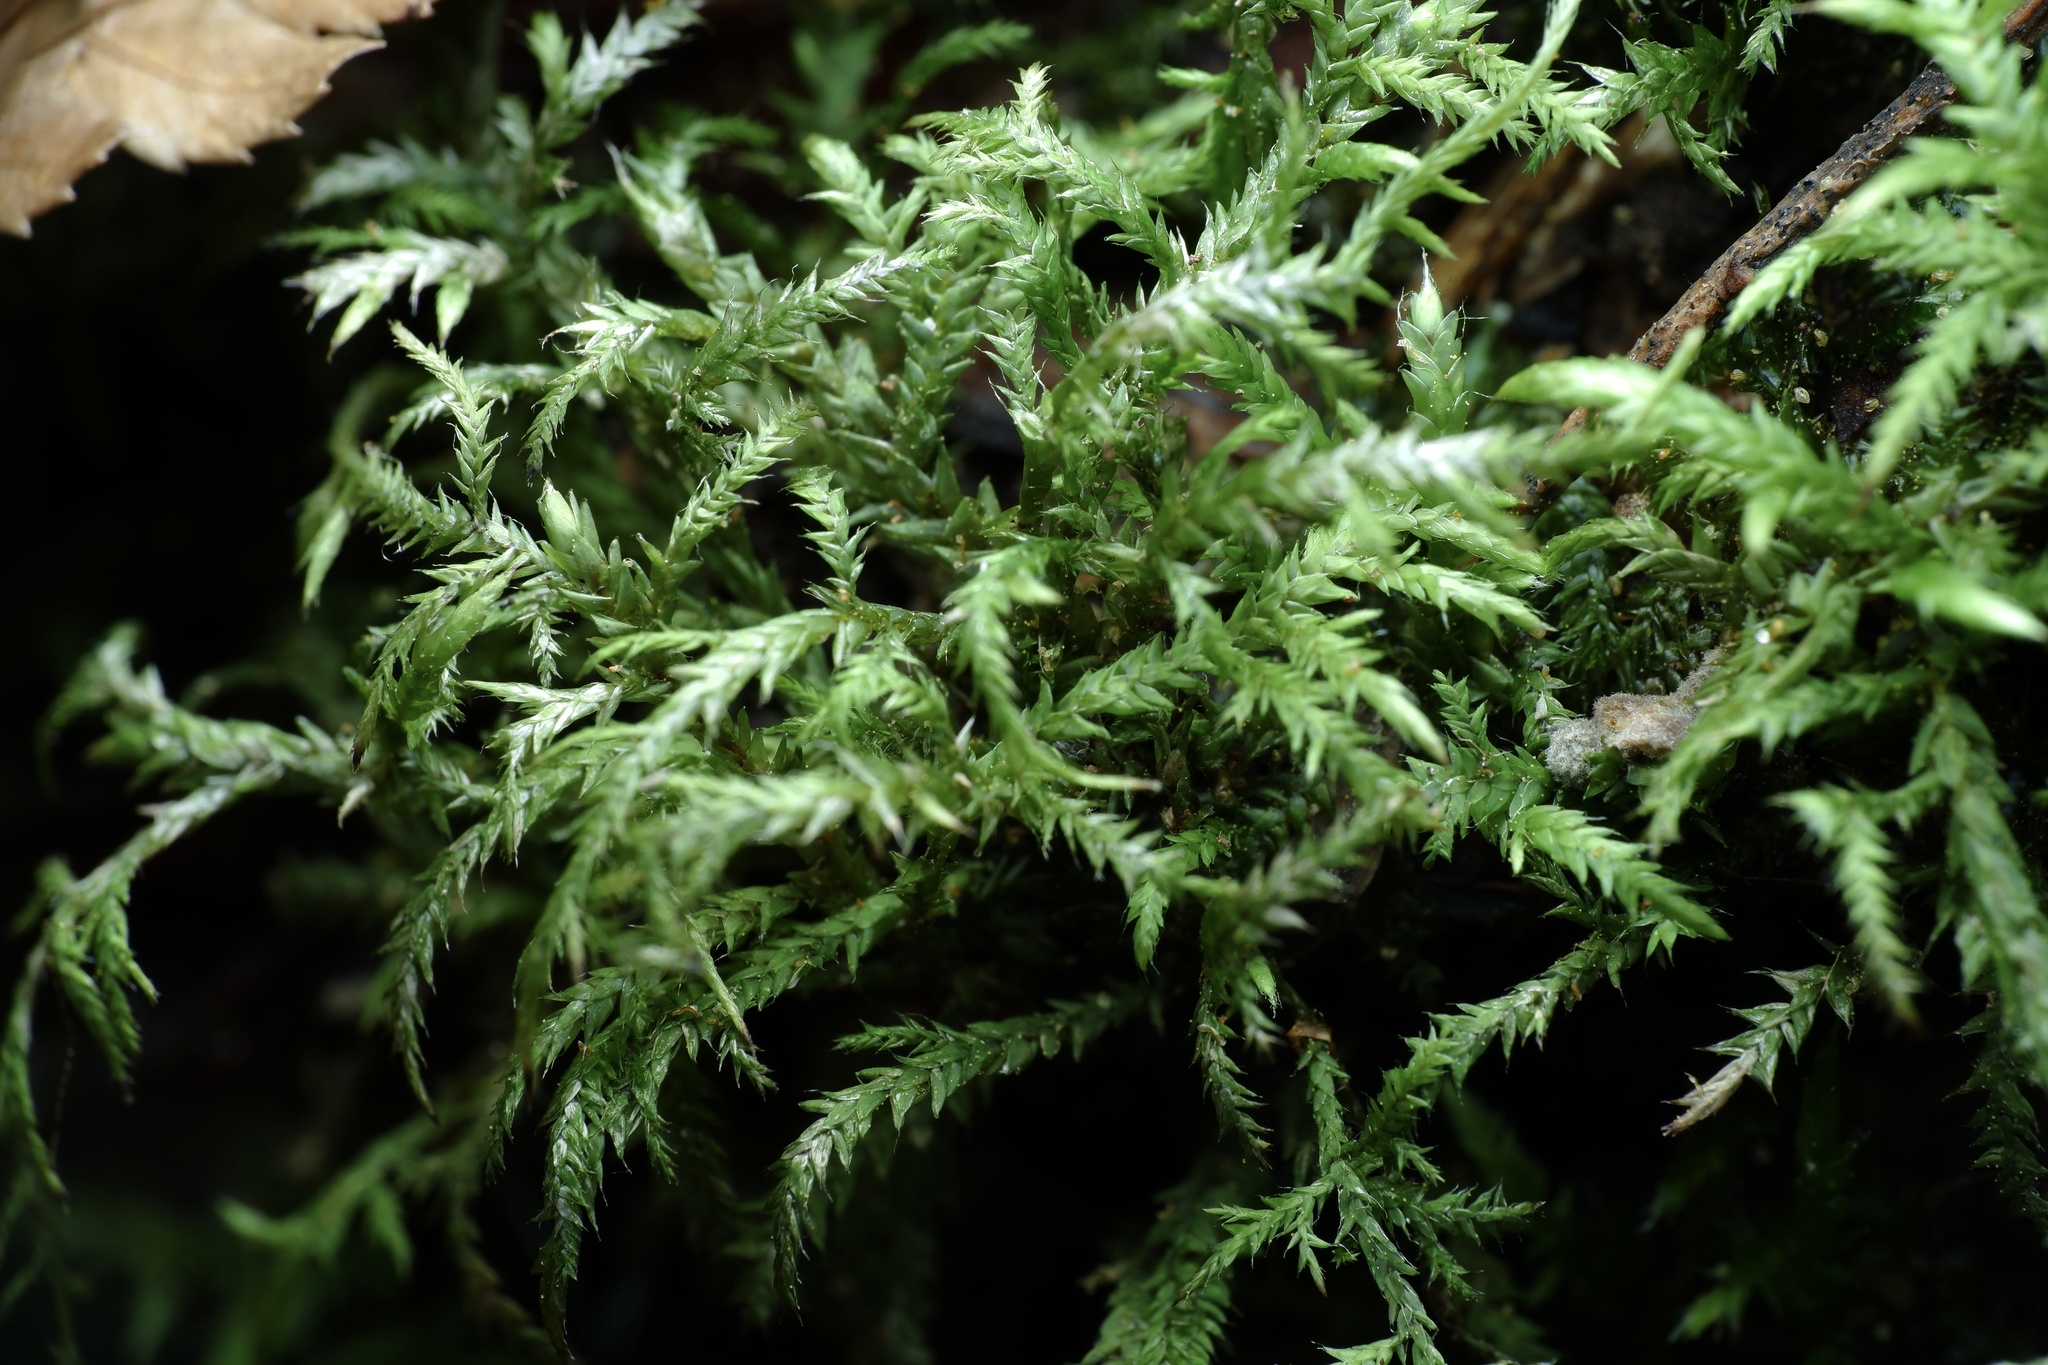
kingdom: Plantae
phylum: Bryophyta
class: Bryopsida
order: Hypnales
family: Pylaisiadelphaceae
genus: Wijkia
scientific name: Wijkia extenuata
